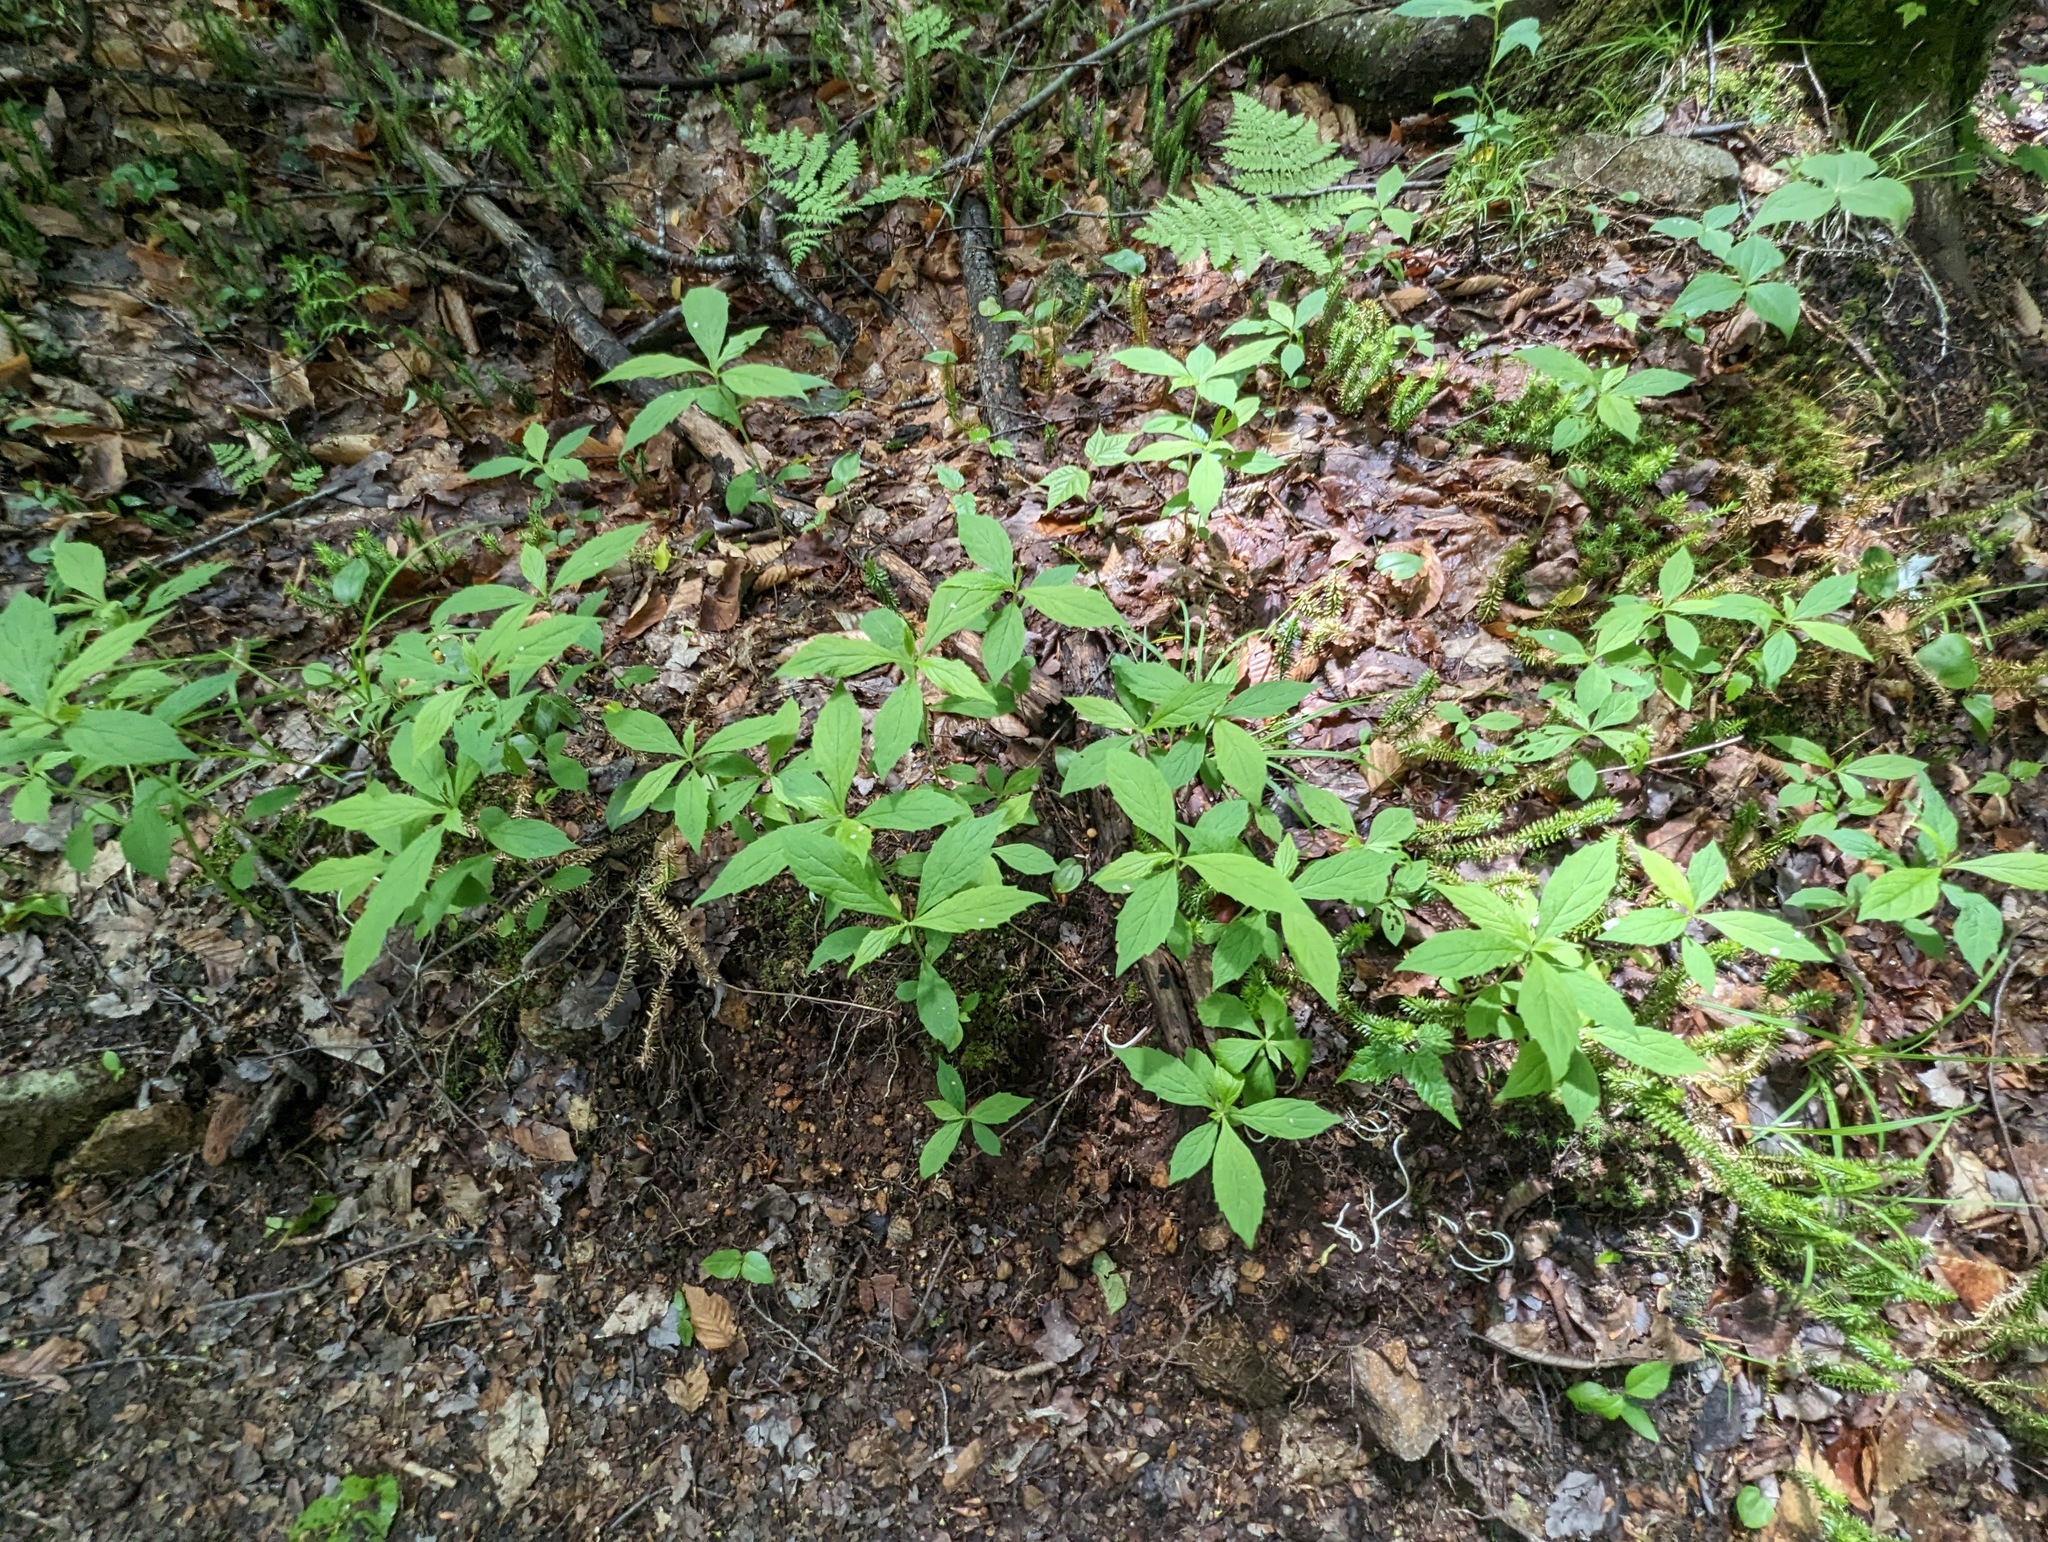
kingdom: Plantae
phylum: Tracheophyta
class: Magnoliopsida
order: Asterales
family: Asteraceae
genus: Oclemena
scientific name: Oclemena acuminata
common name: Mountain aster
